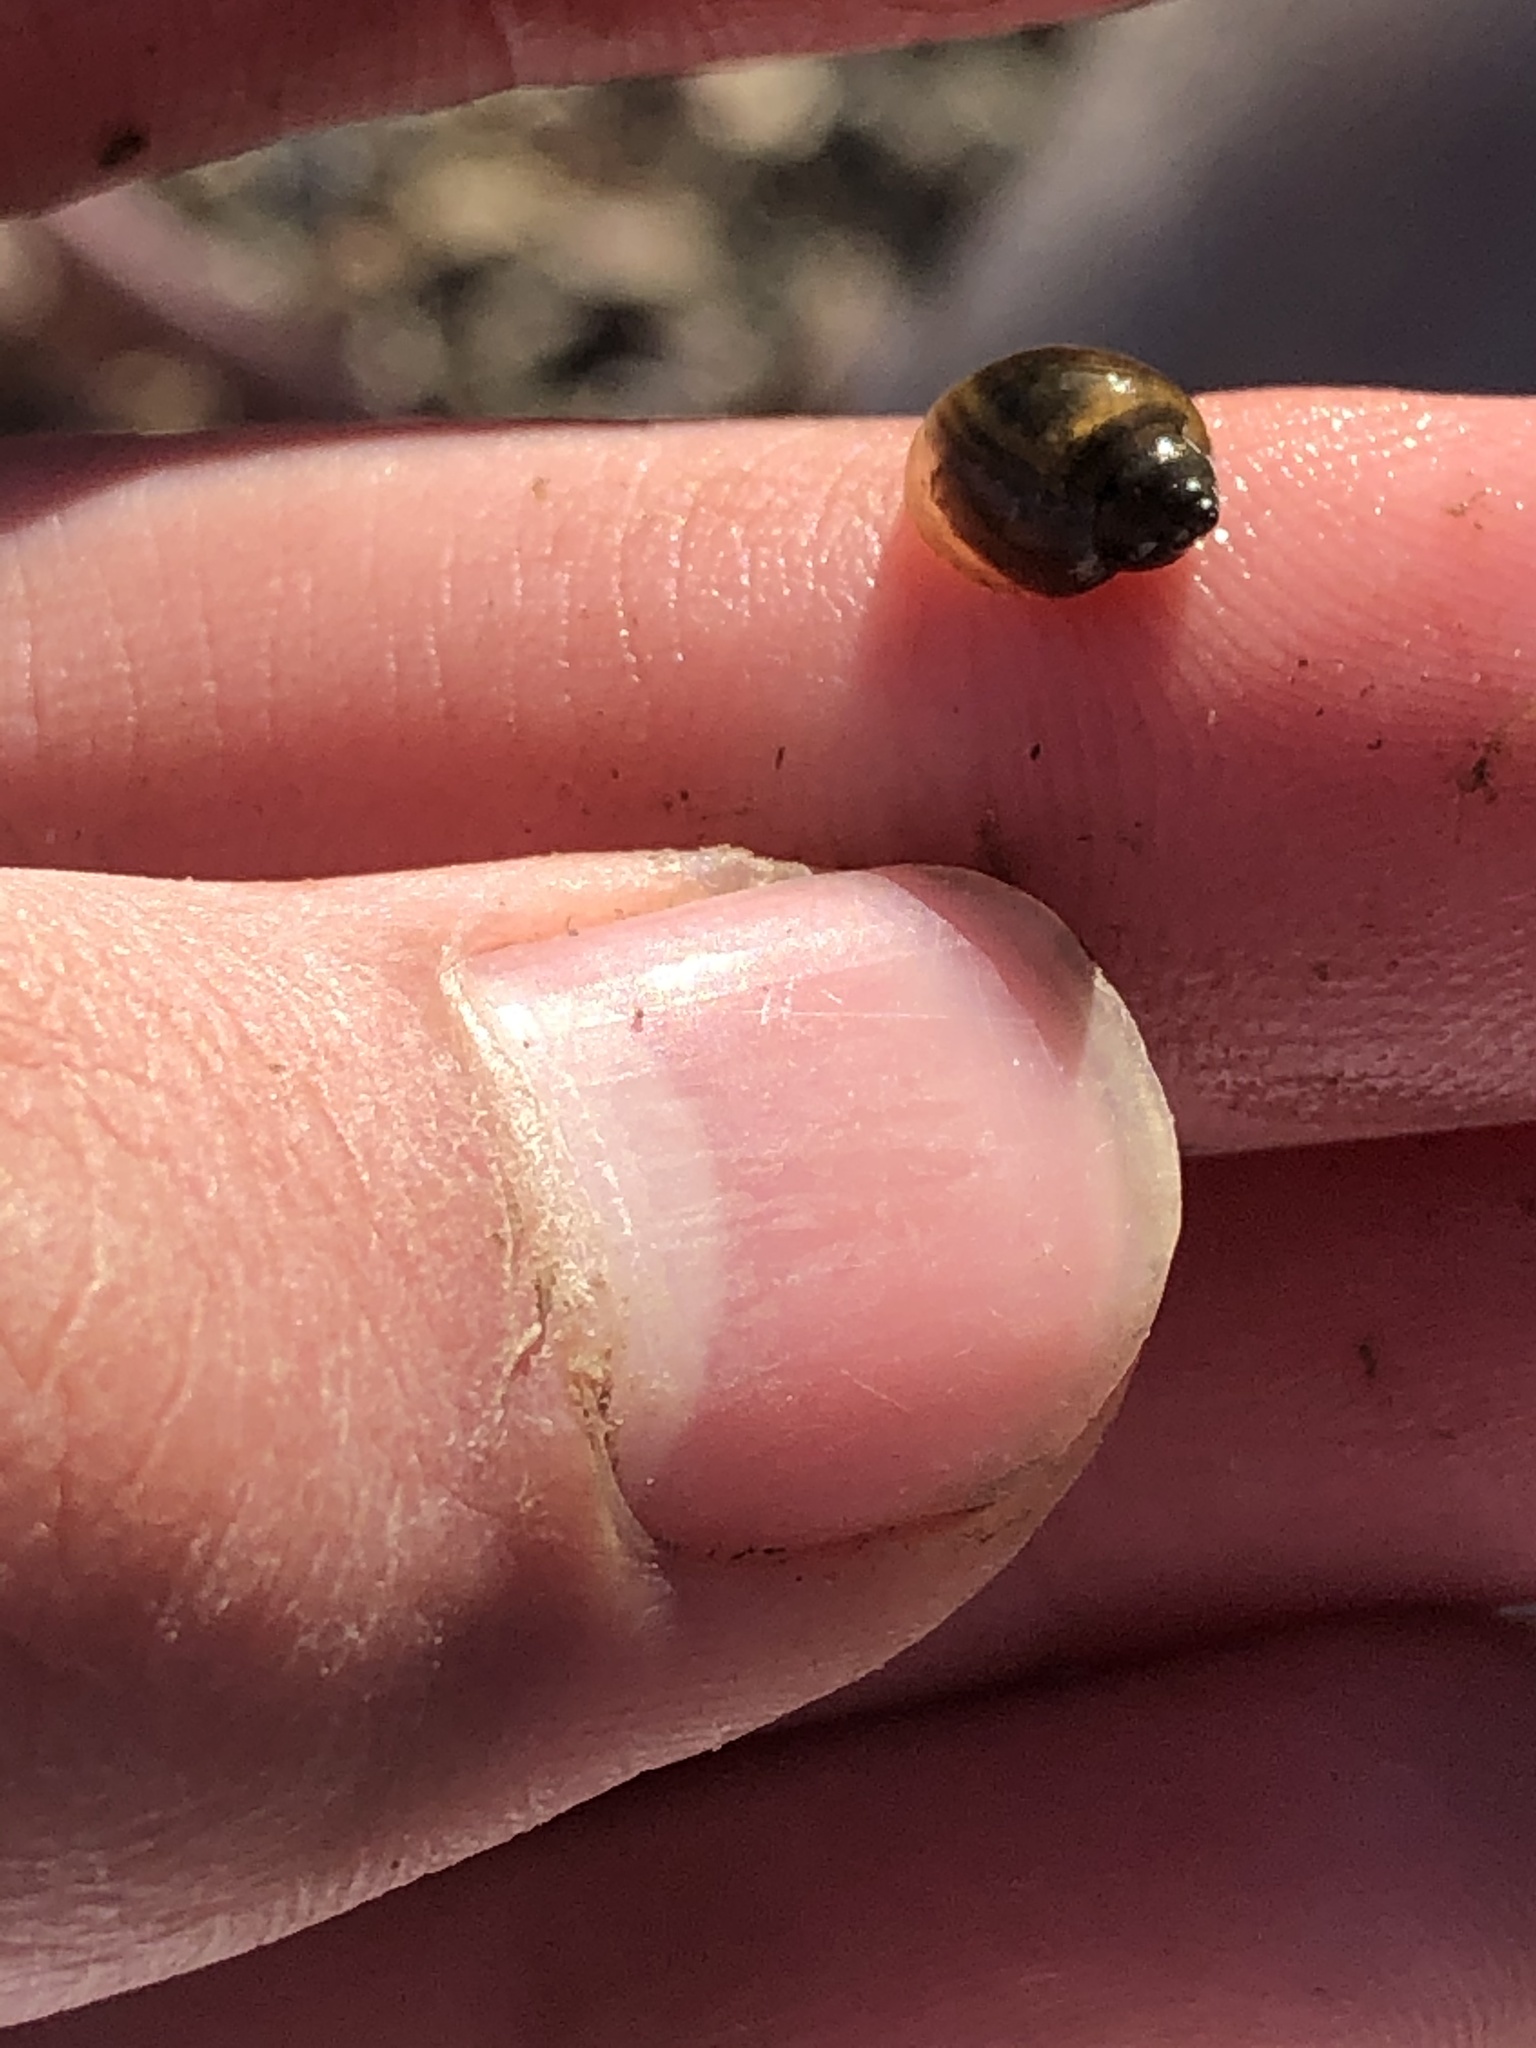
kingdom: Animalia
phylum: Mollusca
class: Gastropoda
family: Physidae
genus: Physella
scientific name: Physella
